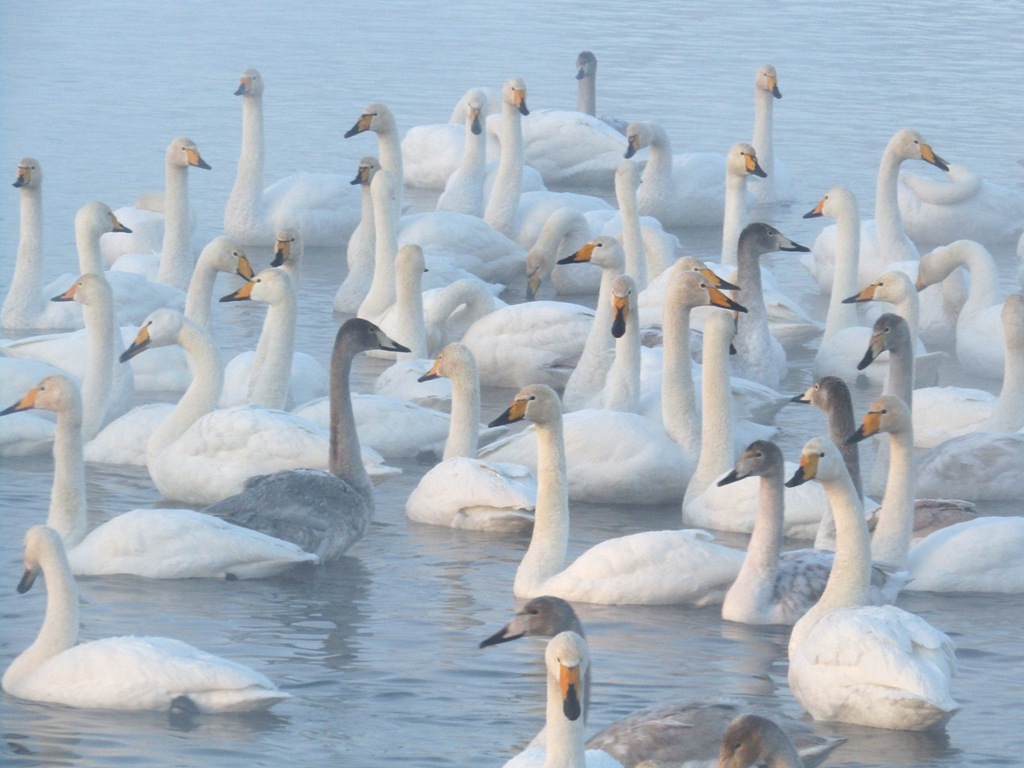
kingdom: Animalia
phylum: Chordata
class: Aves
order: Anseriformes
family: Anatidae
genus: Cygnus
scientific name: Cygnus cygnus
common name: Whooper swan
